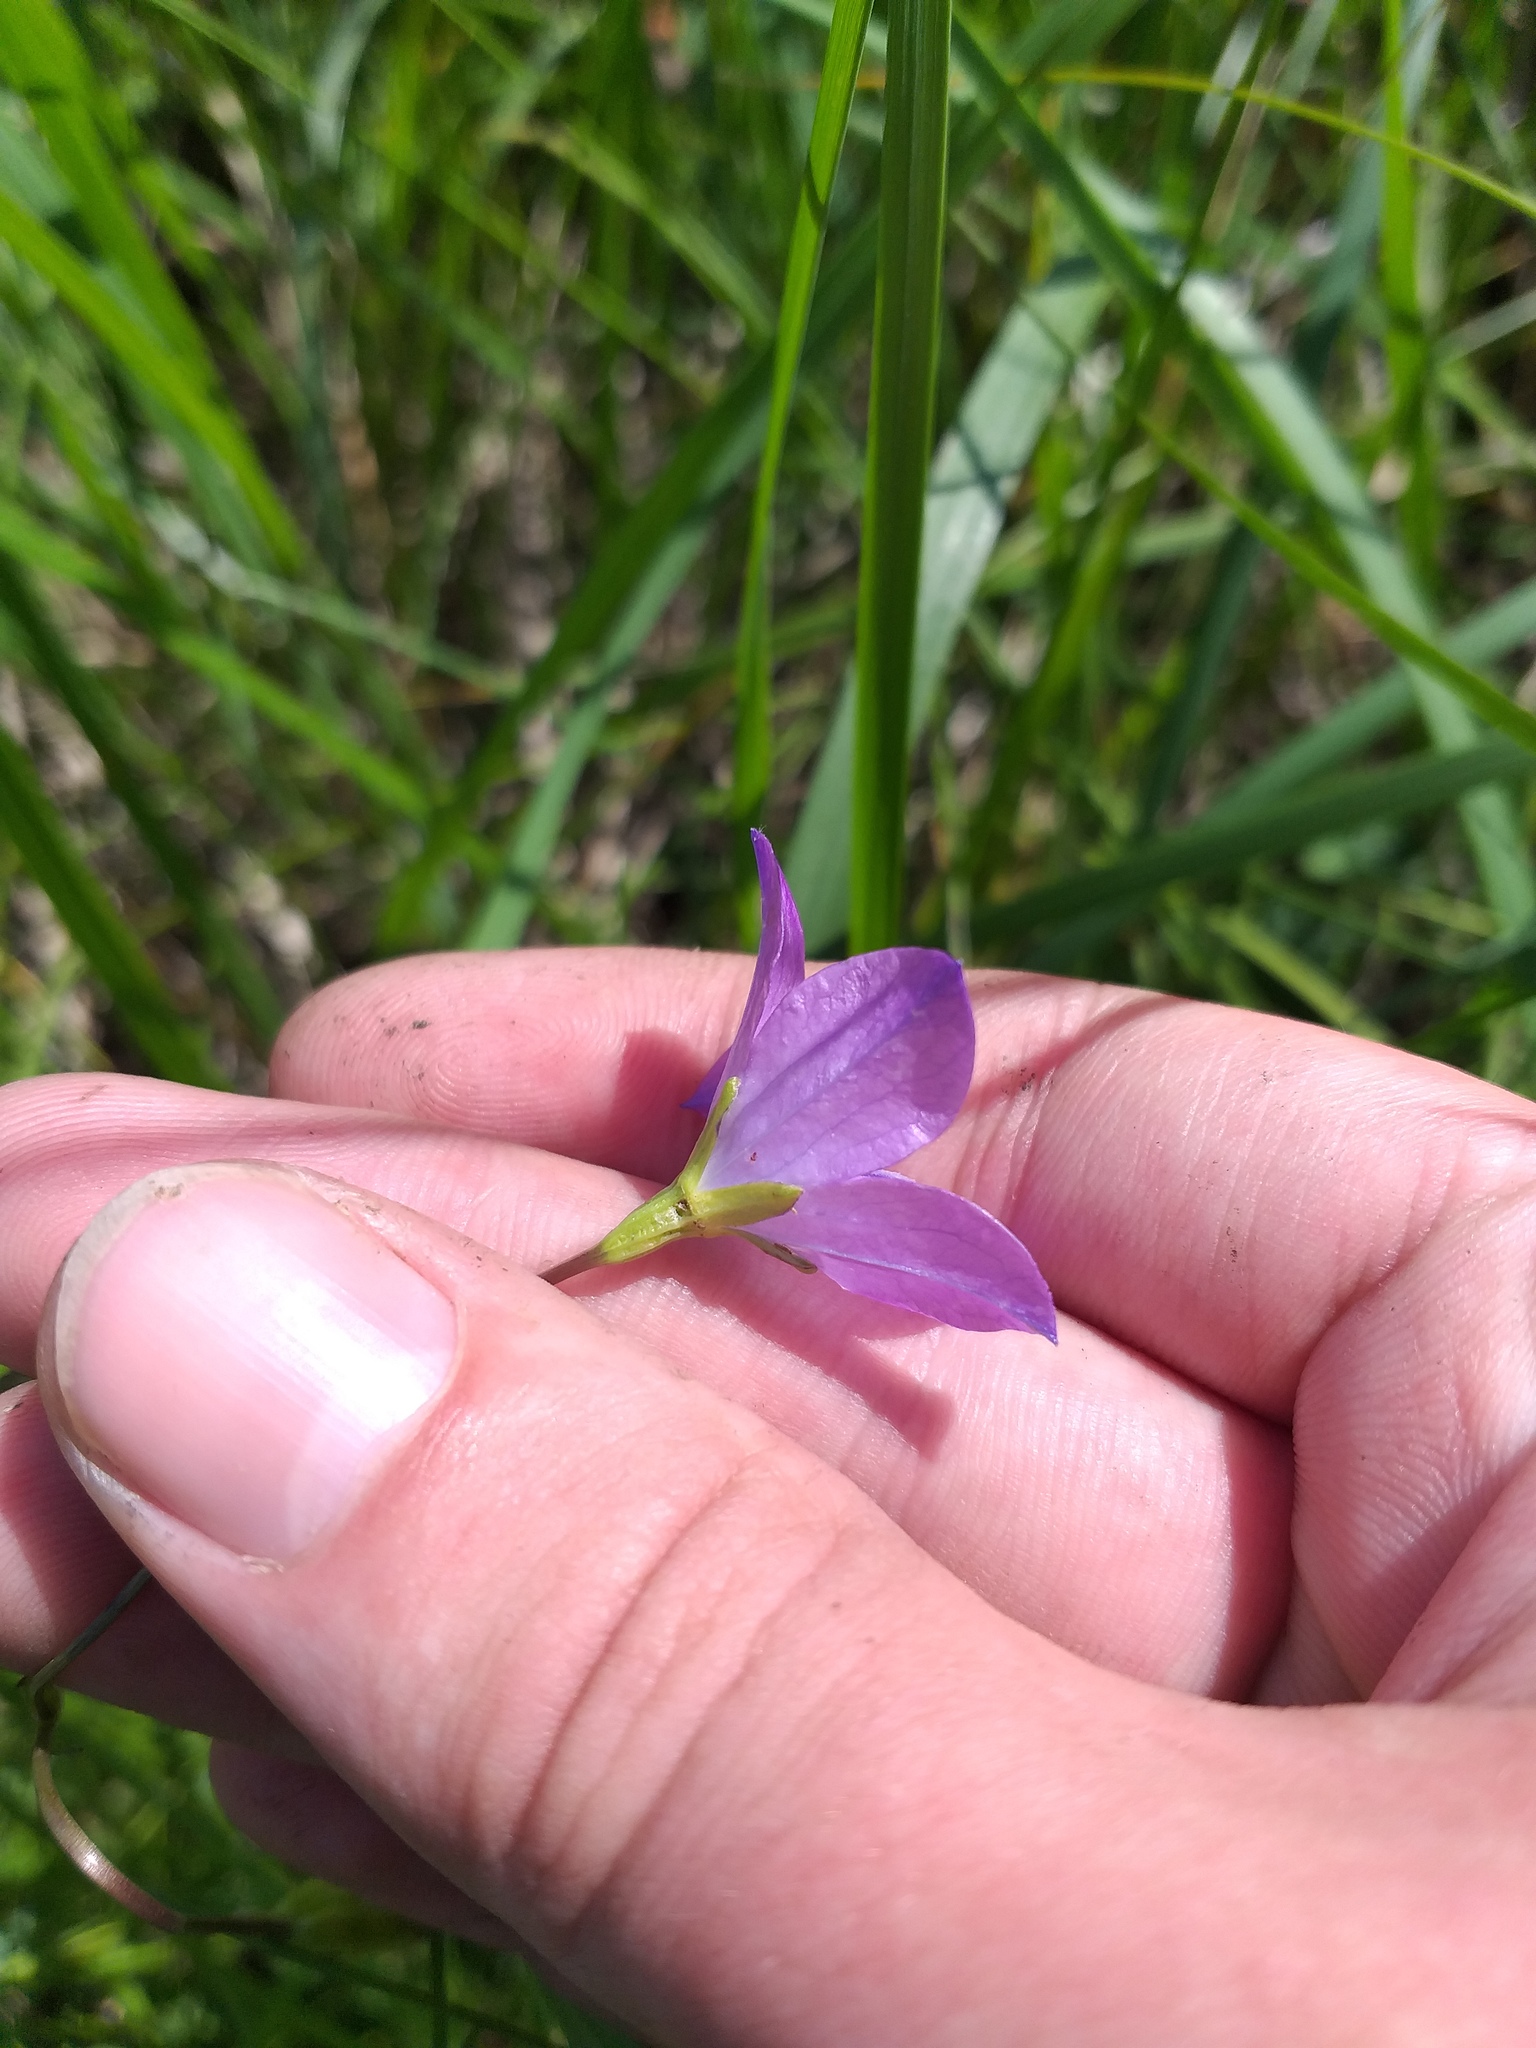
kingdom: Plantae
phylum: Tracheophyta
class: Magnoliopsida
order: Asterales
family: Campanulaceae
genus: Campanula
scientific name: Campanula stevenii
